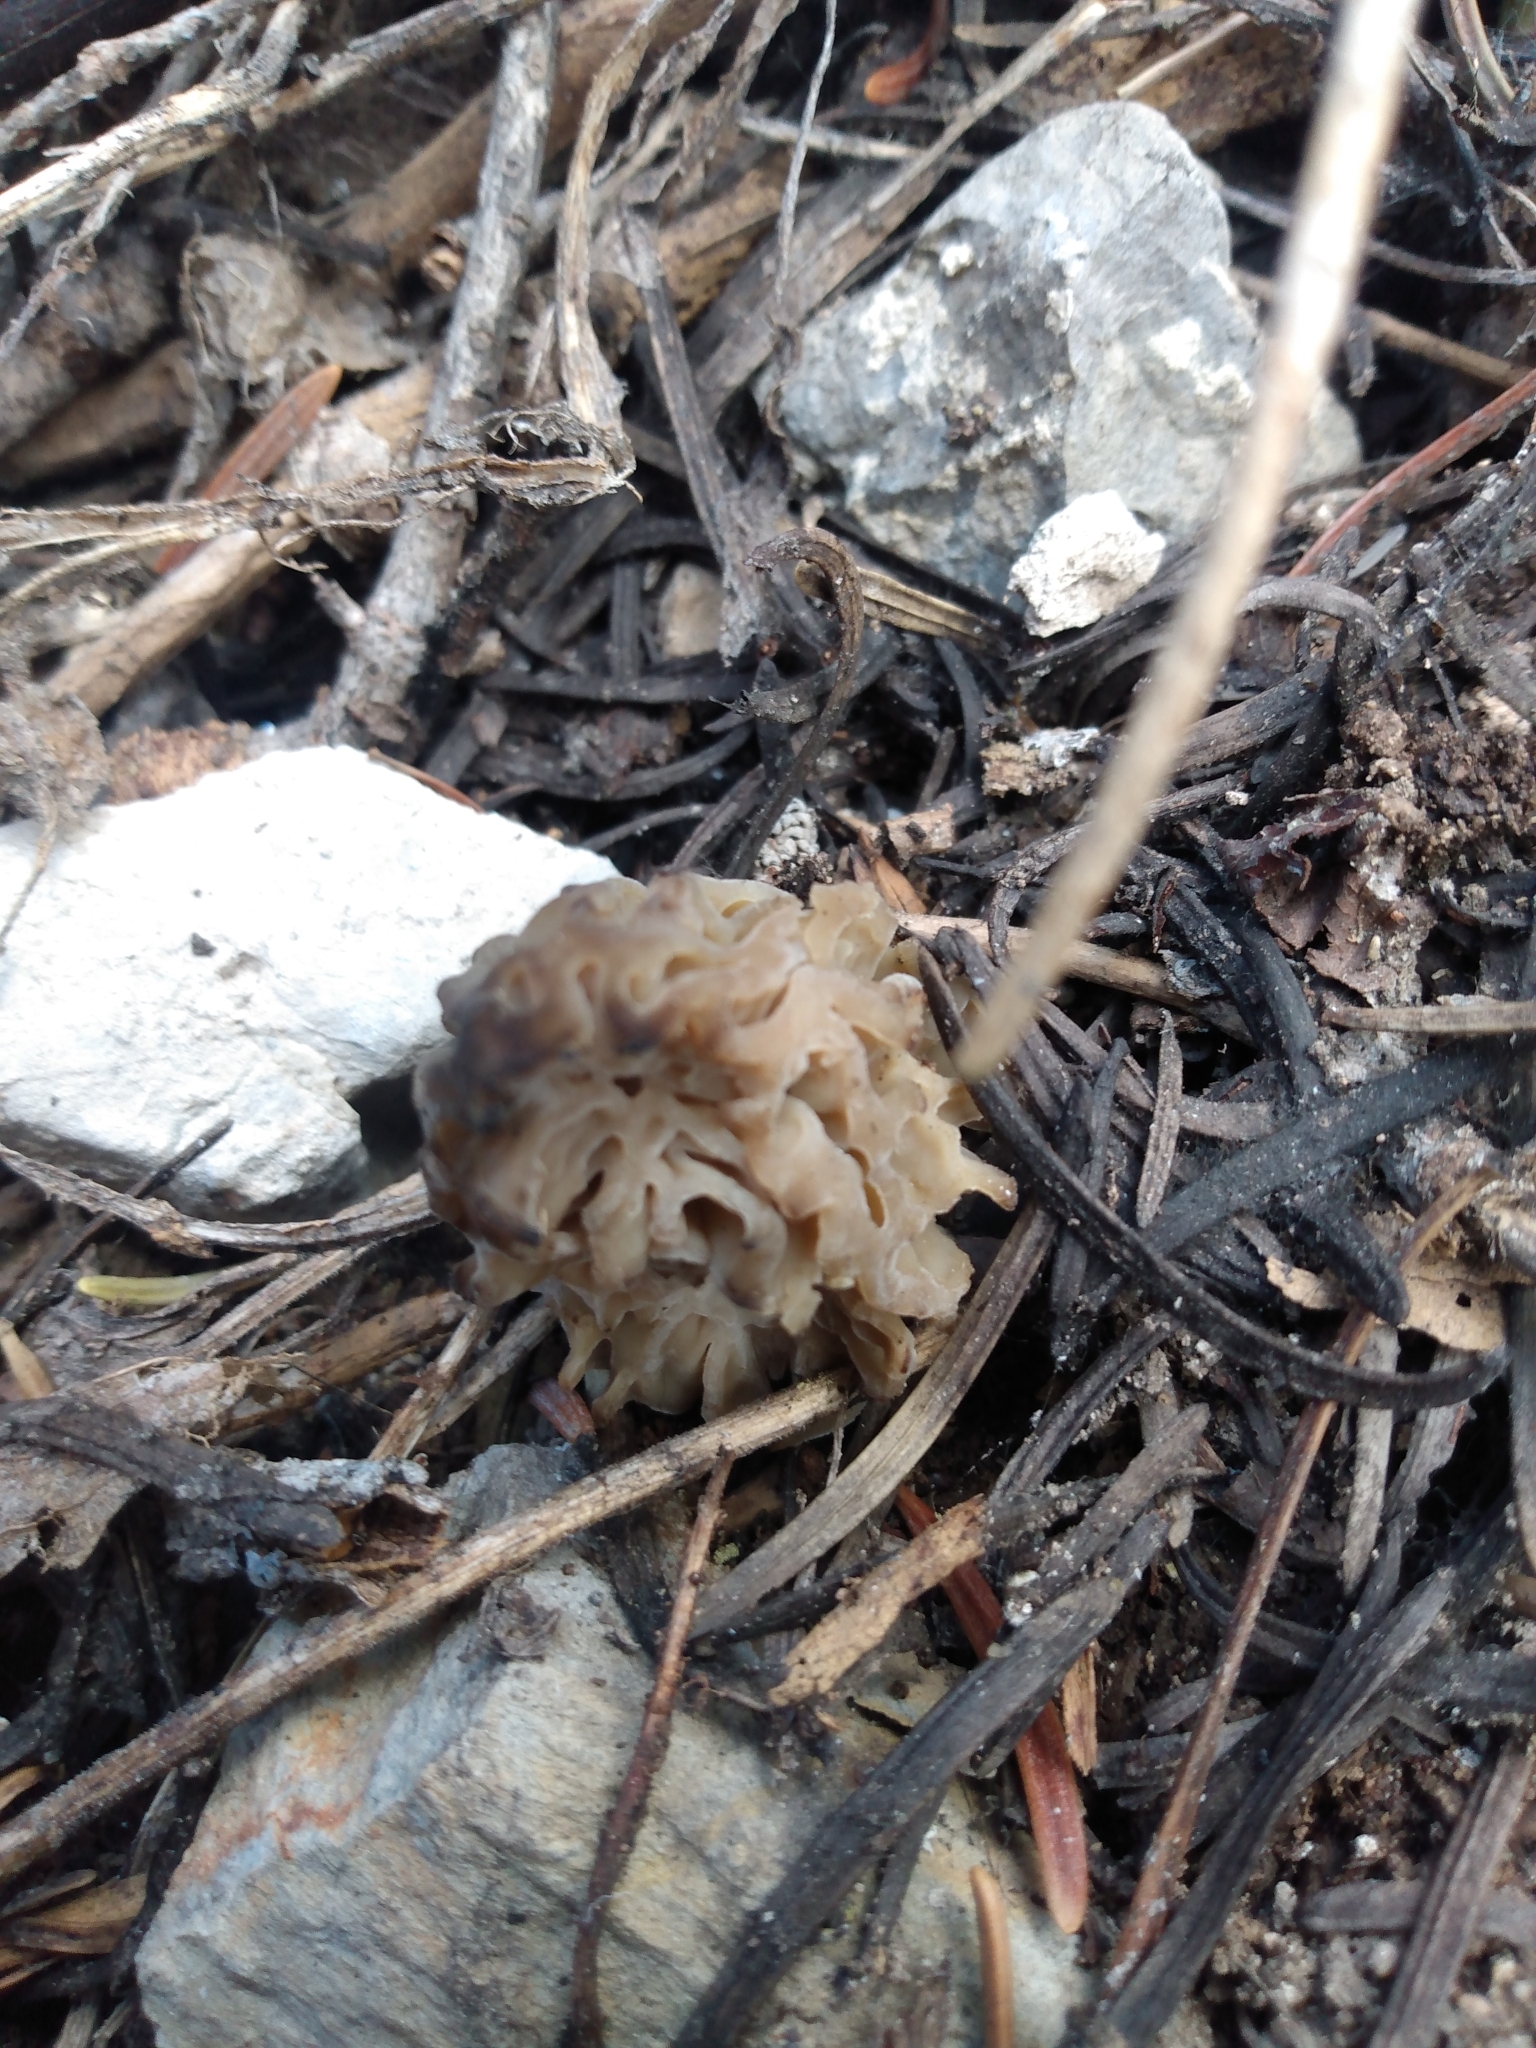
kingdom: Fungi
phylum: Ascomycota
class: Pezizomycetes
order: Pezizales
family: Morchellaceae
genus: Morchella
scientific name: Morchella snyderi
